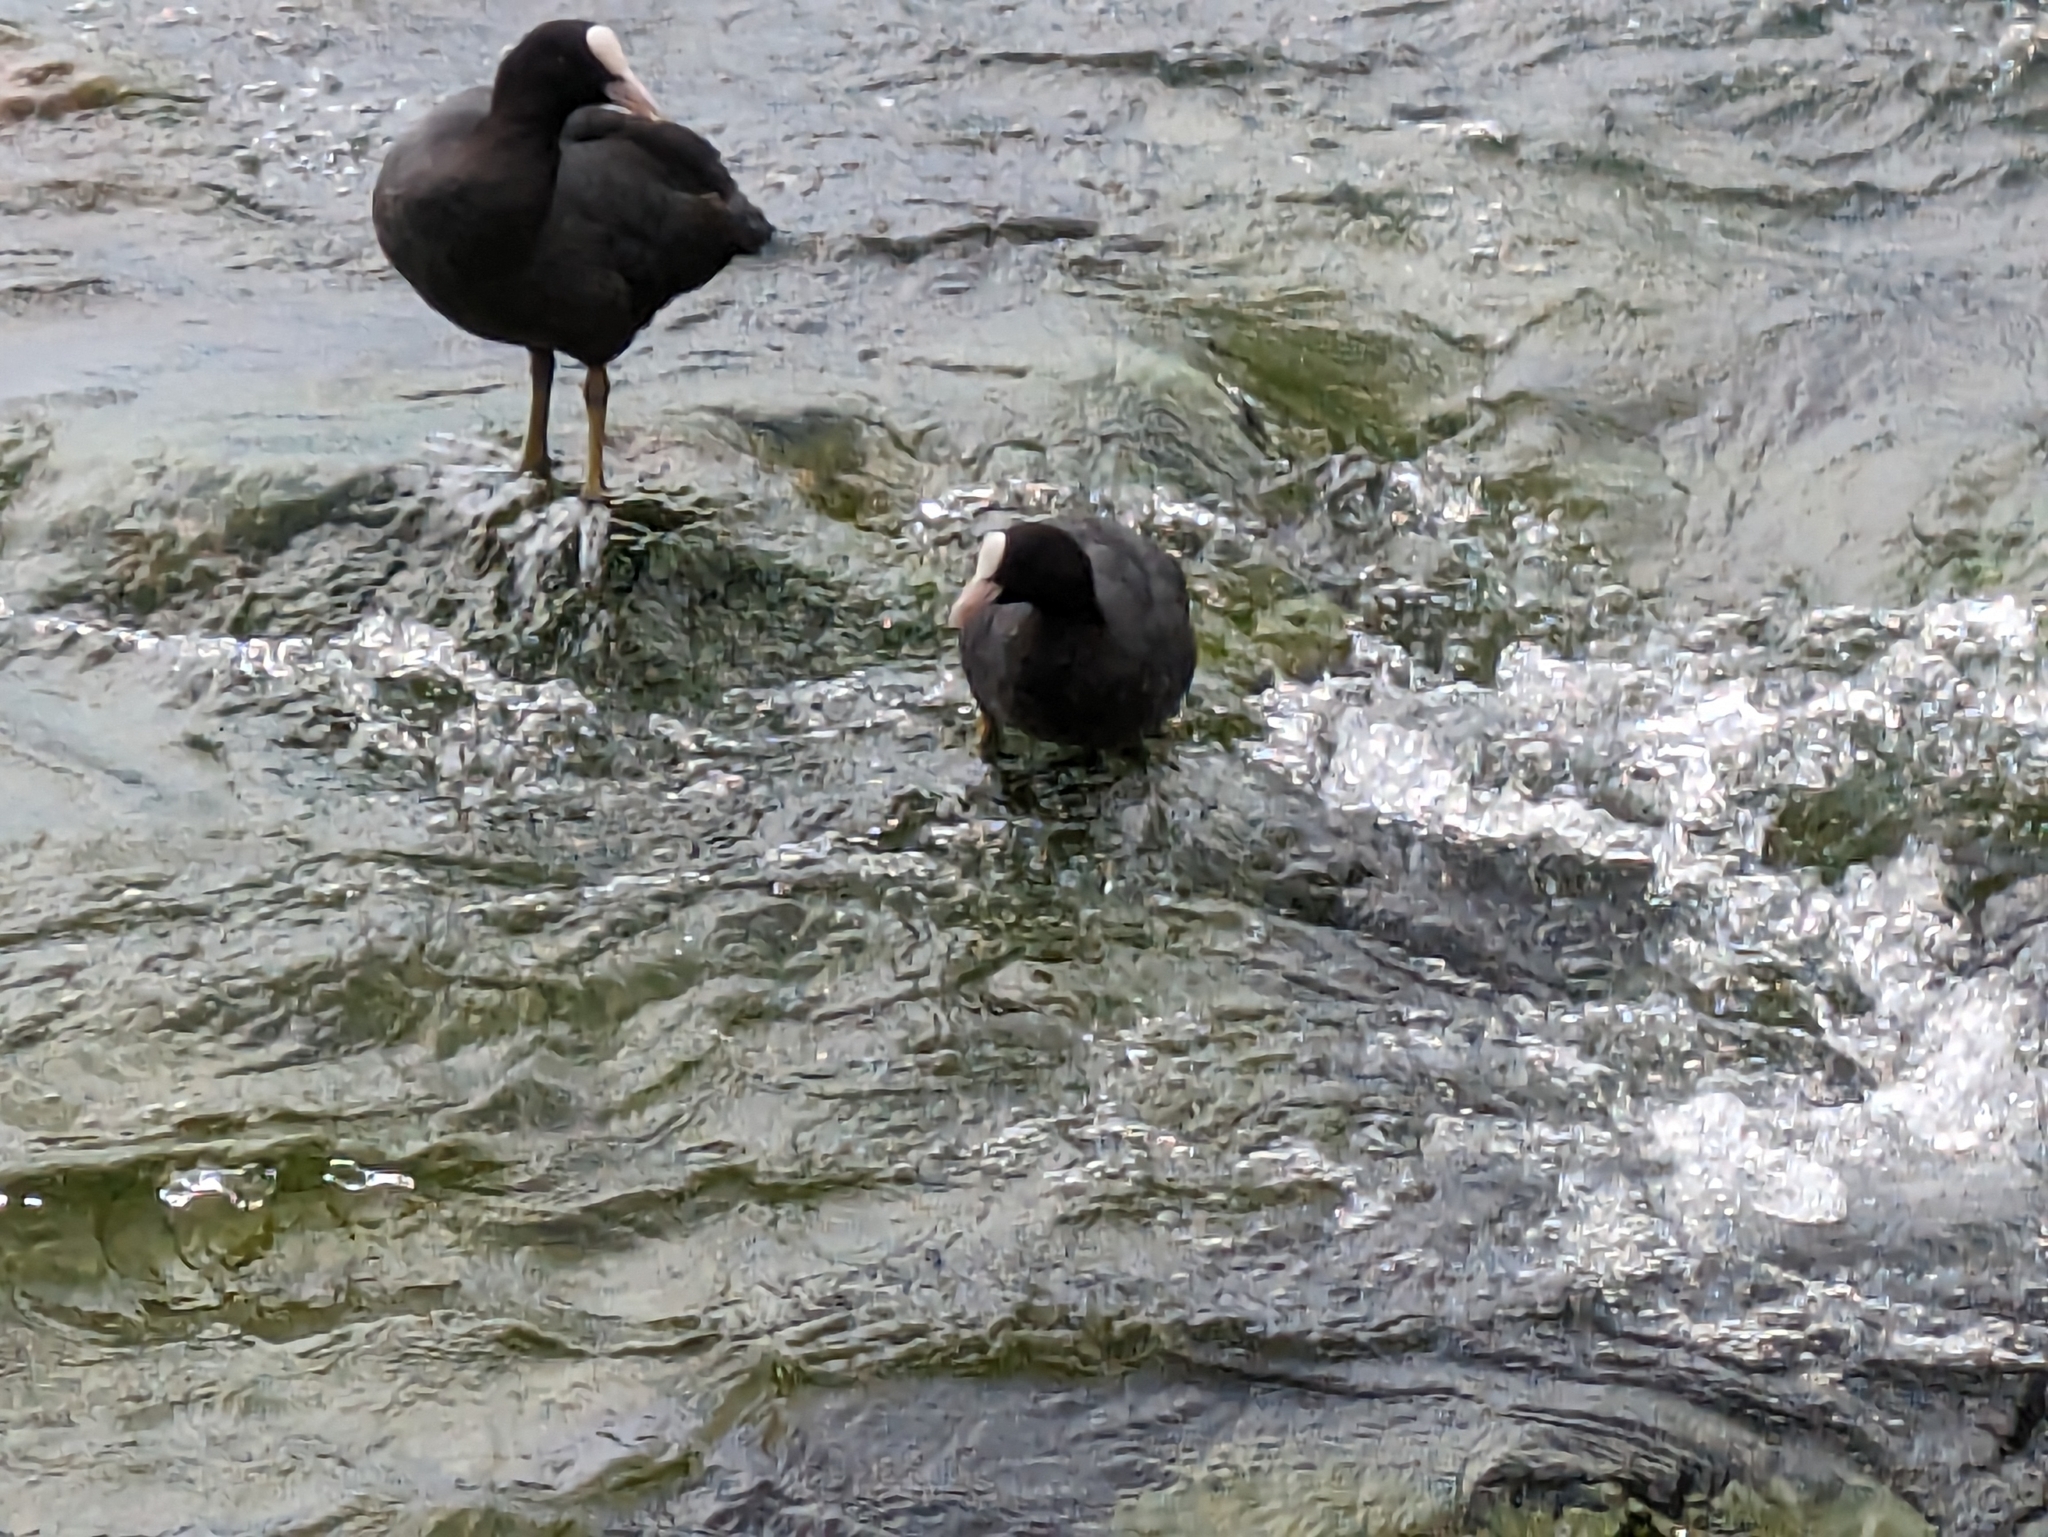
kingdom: Animalia
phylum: Chordata
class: Aves
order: Gruiformes
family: Rallidae
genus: Fulica
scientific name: Fulica atra
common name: Eurasian coot
